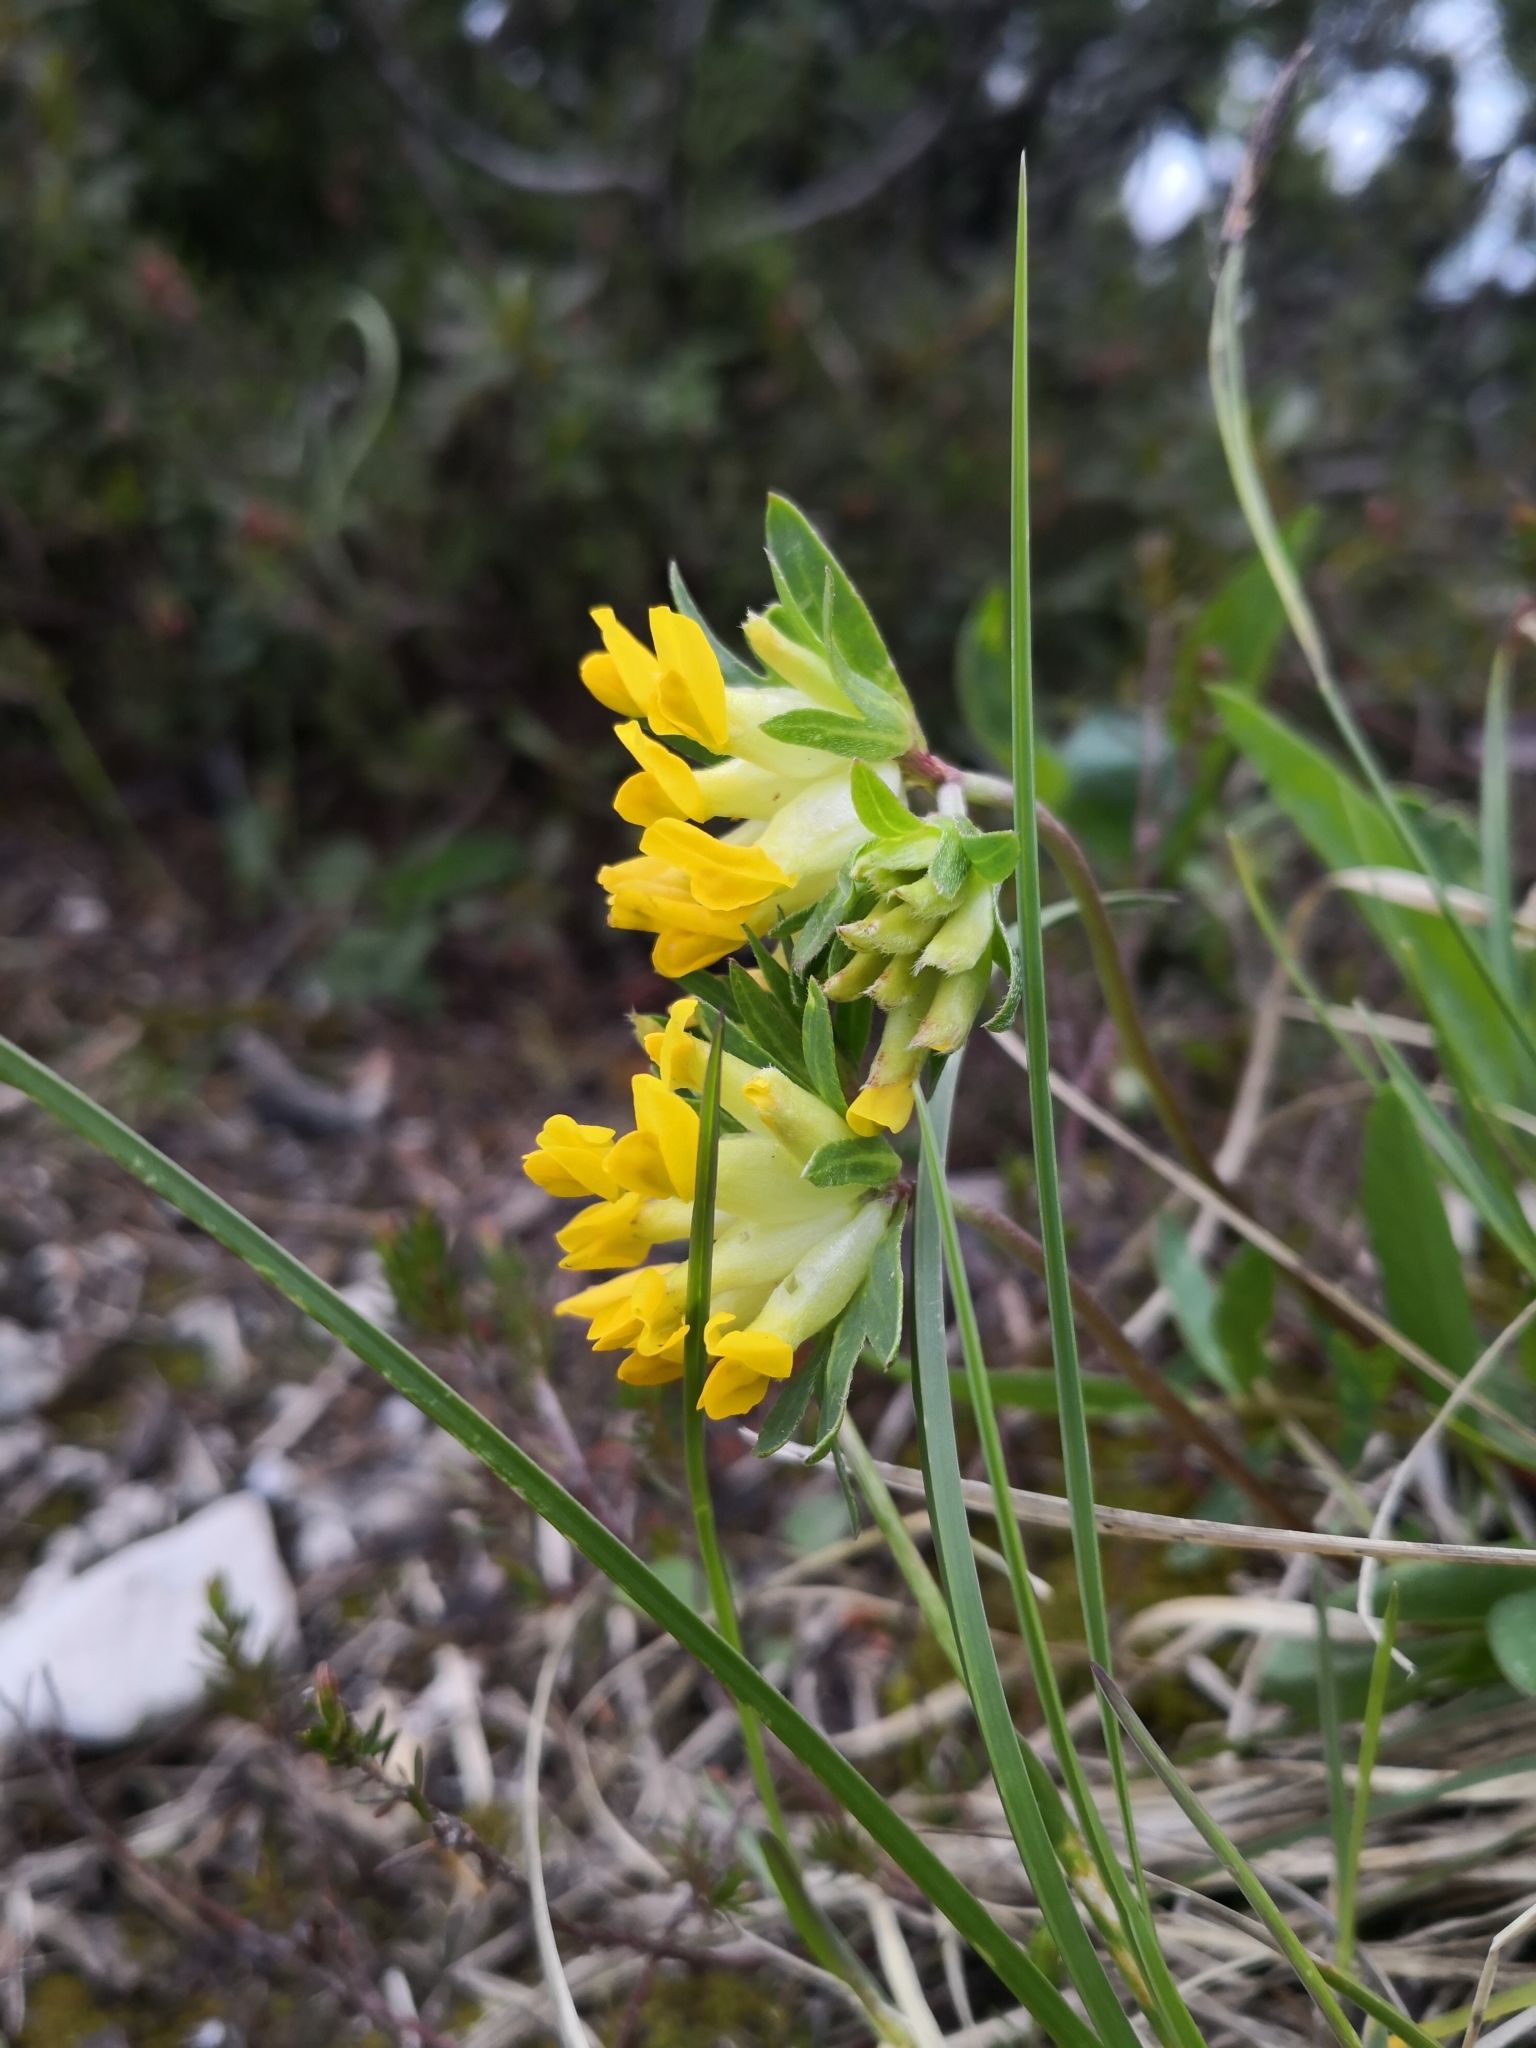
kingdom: Plantae
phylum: Tracheophyta
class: Magnoliopsida
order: Fabales
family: Fabaceae
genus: Anthyllis
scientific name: Anthyllis vulneraria
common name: Kidney vetch
